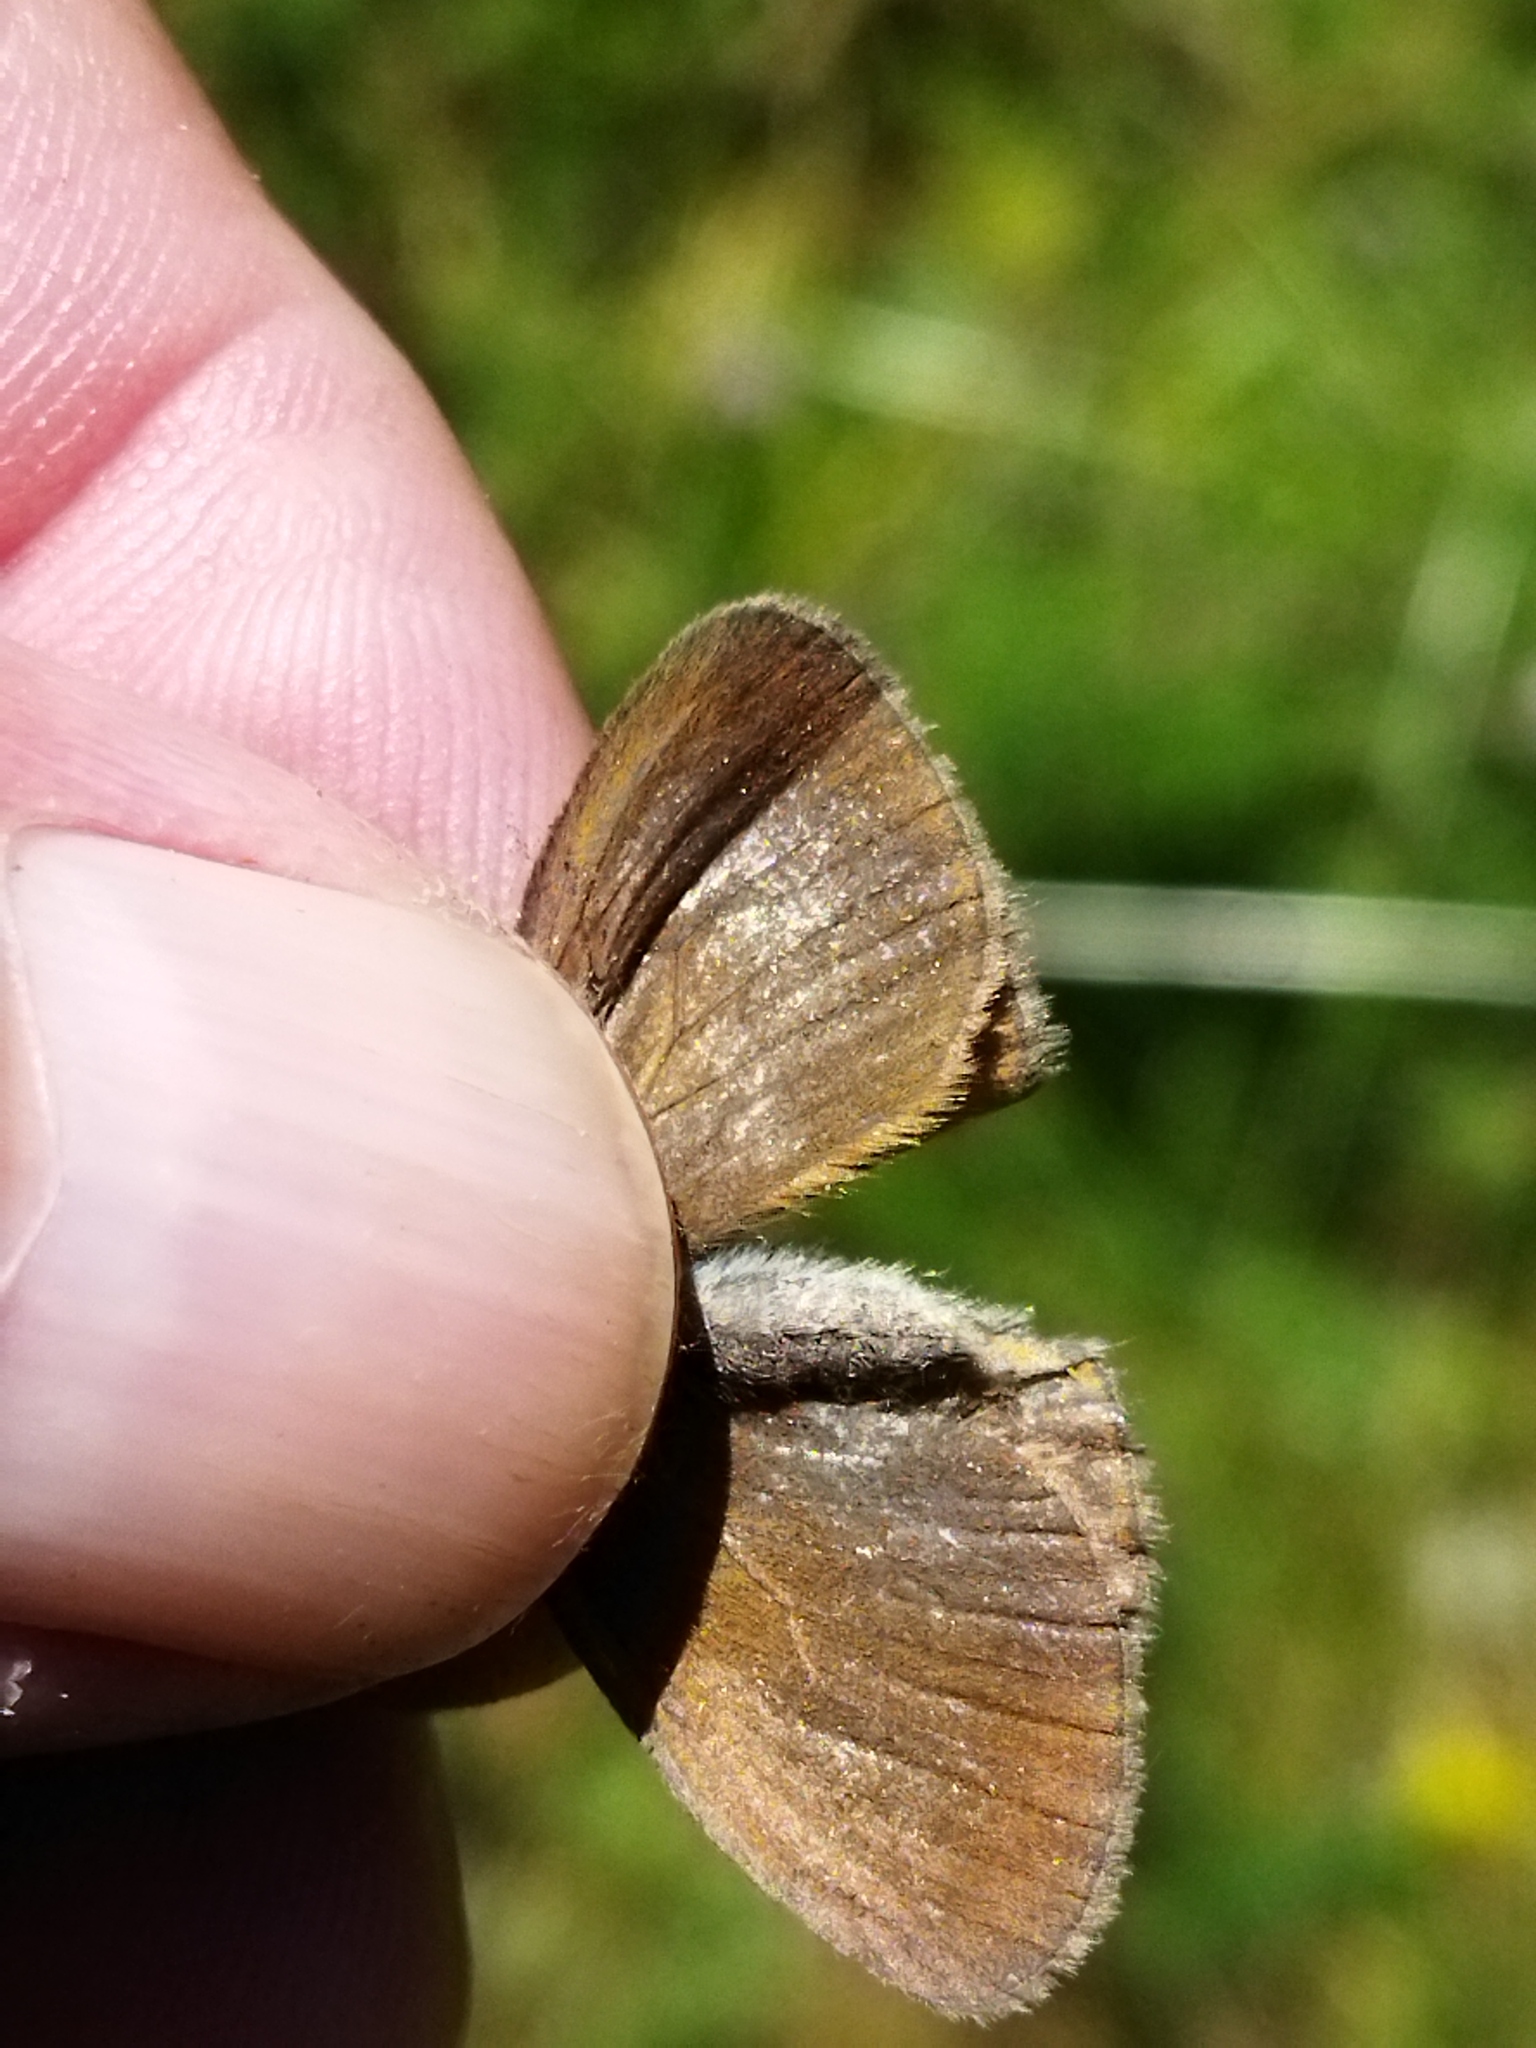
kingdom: Animalia
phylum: Arthropoda
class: Insecta
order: Lepidoptera
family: Nymphalidae
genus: Coenonympha
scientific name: Coenonympha iphis
